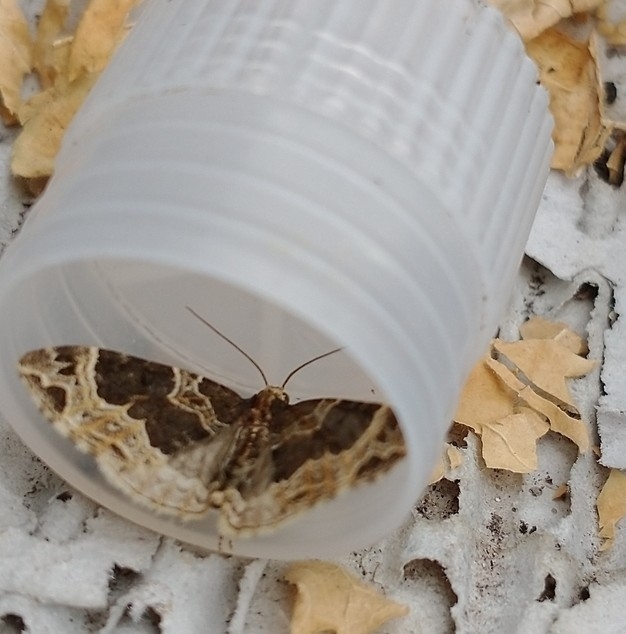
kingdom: Animalia
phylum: Arthropoda
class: Insecta
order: Lepidoptera
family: Geometridae
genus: Ecliptopera
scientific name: Ecliptopera silaceata
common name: Small phoenix
